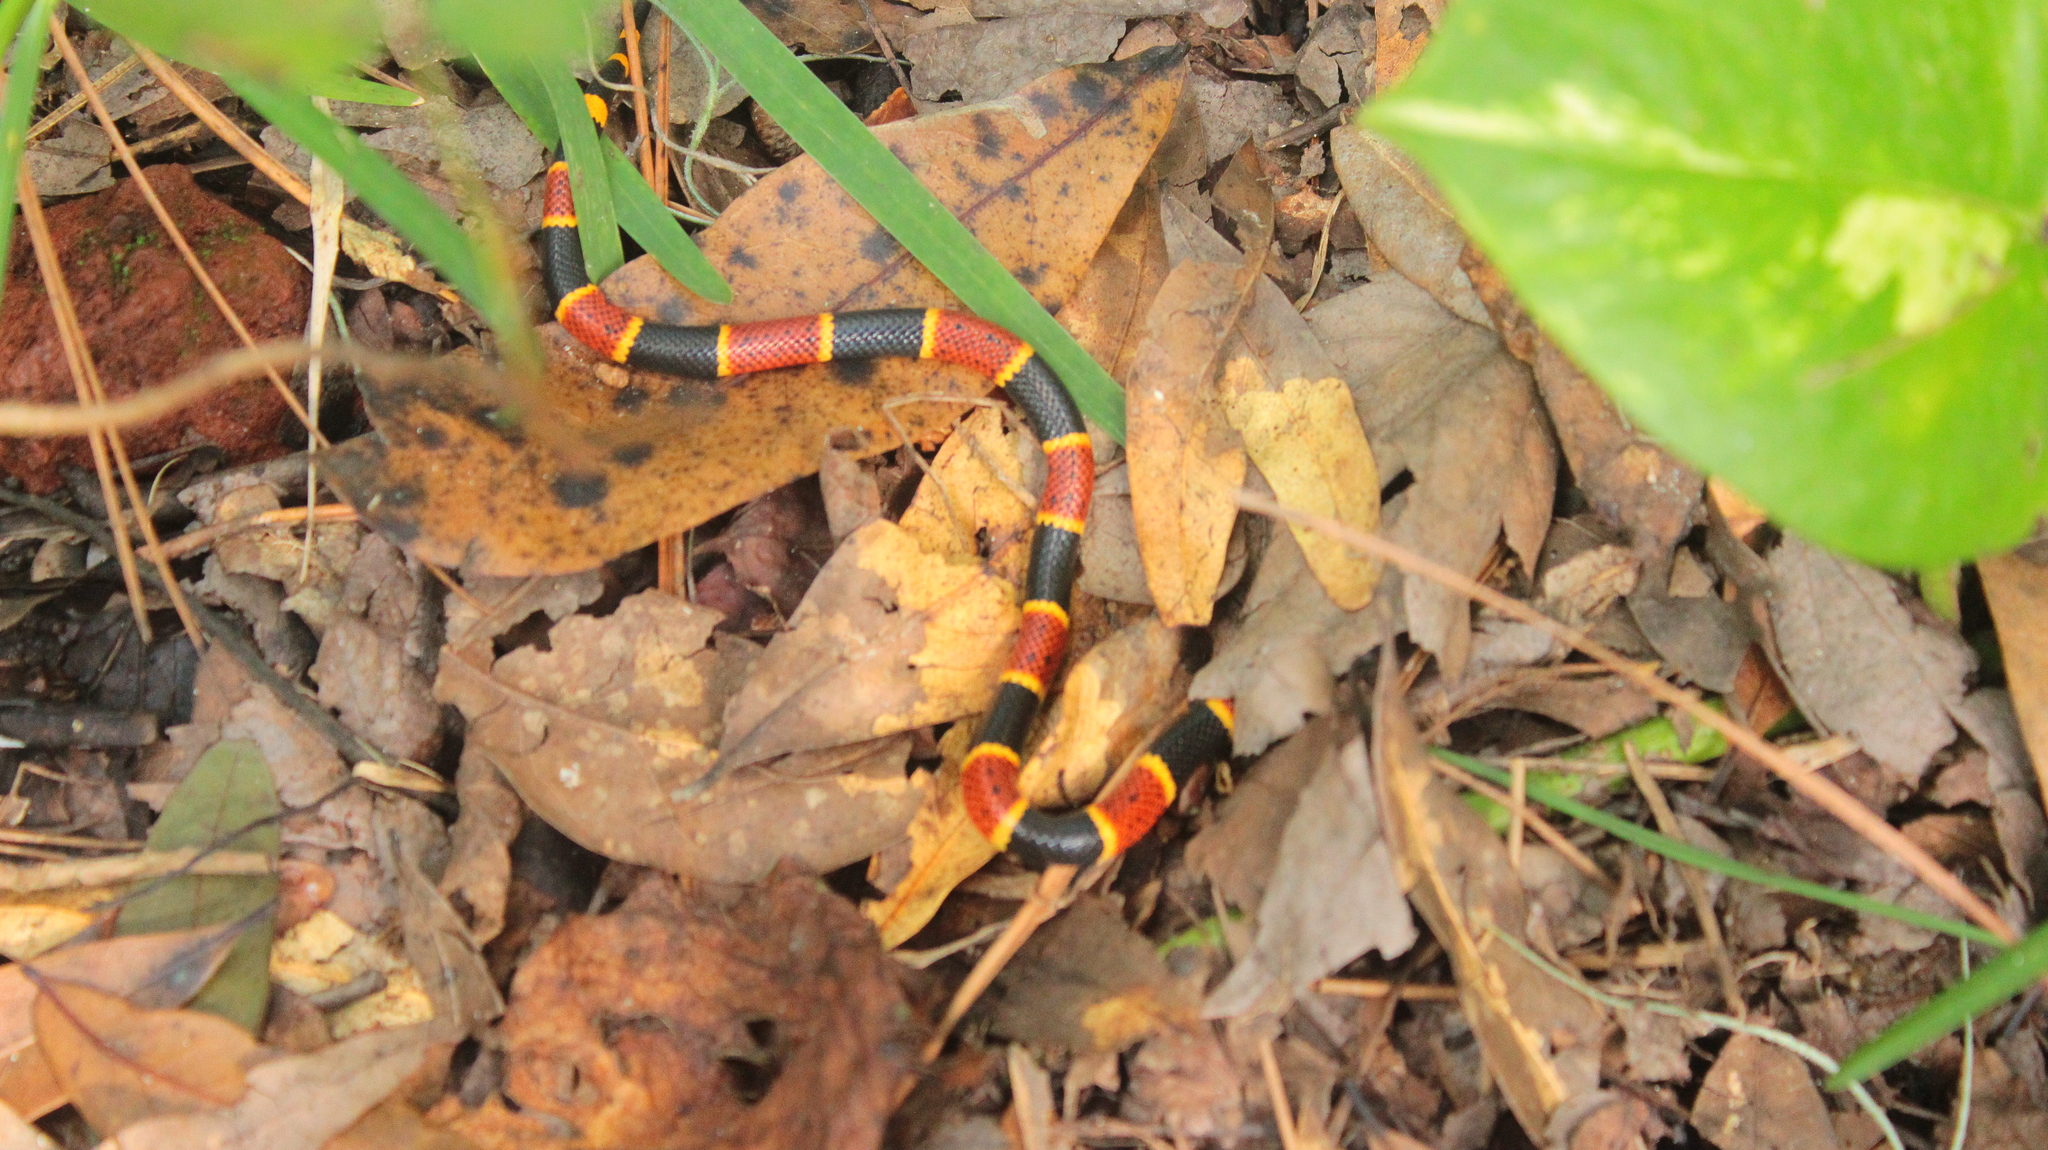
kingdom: Animalia
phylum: Chordata
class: Squamata
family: Elapidae
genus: Micrurus
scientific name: Micrurus fulvius
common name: Eastern coral snake
